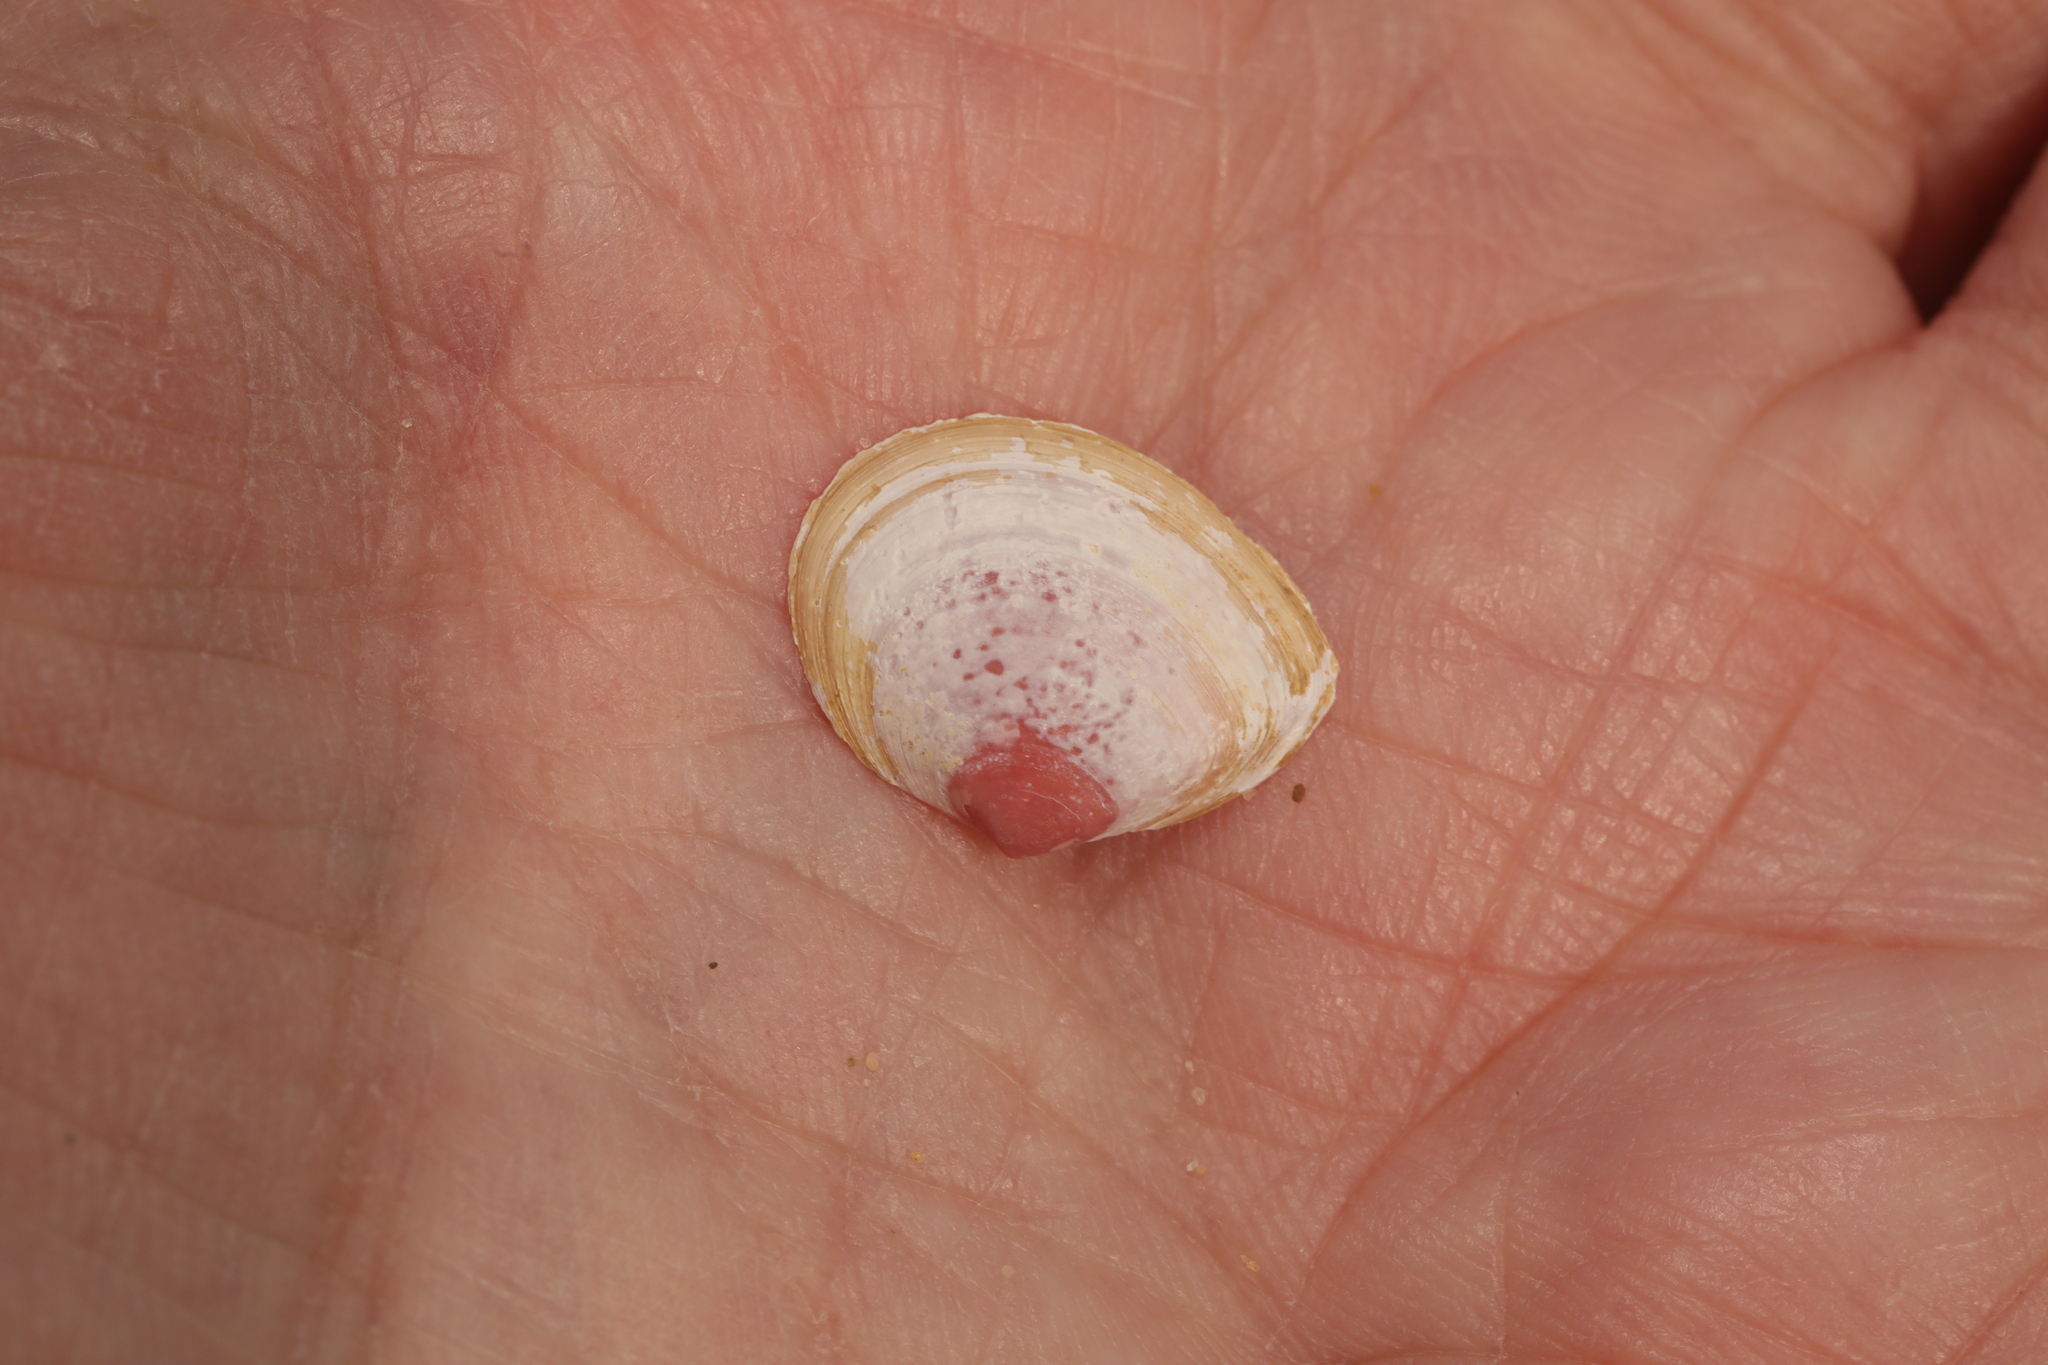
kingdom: Animalia
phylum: Mollusca
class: Bivalvia
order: Cardiida
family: Tellinidae
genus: Macoma
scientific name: Macoma balthica
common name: Baltic tellin
